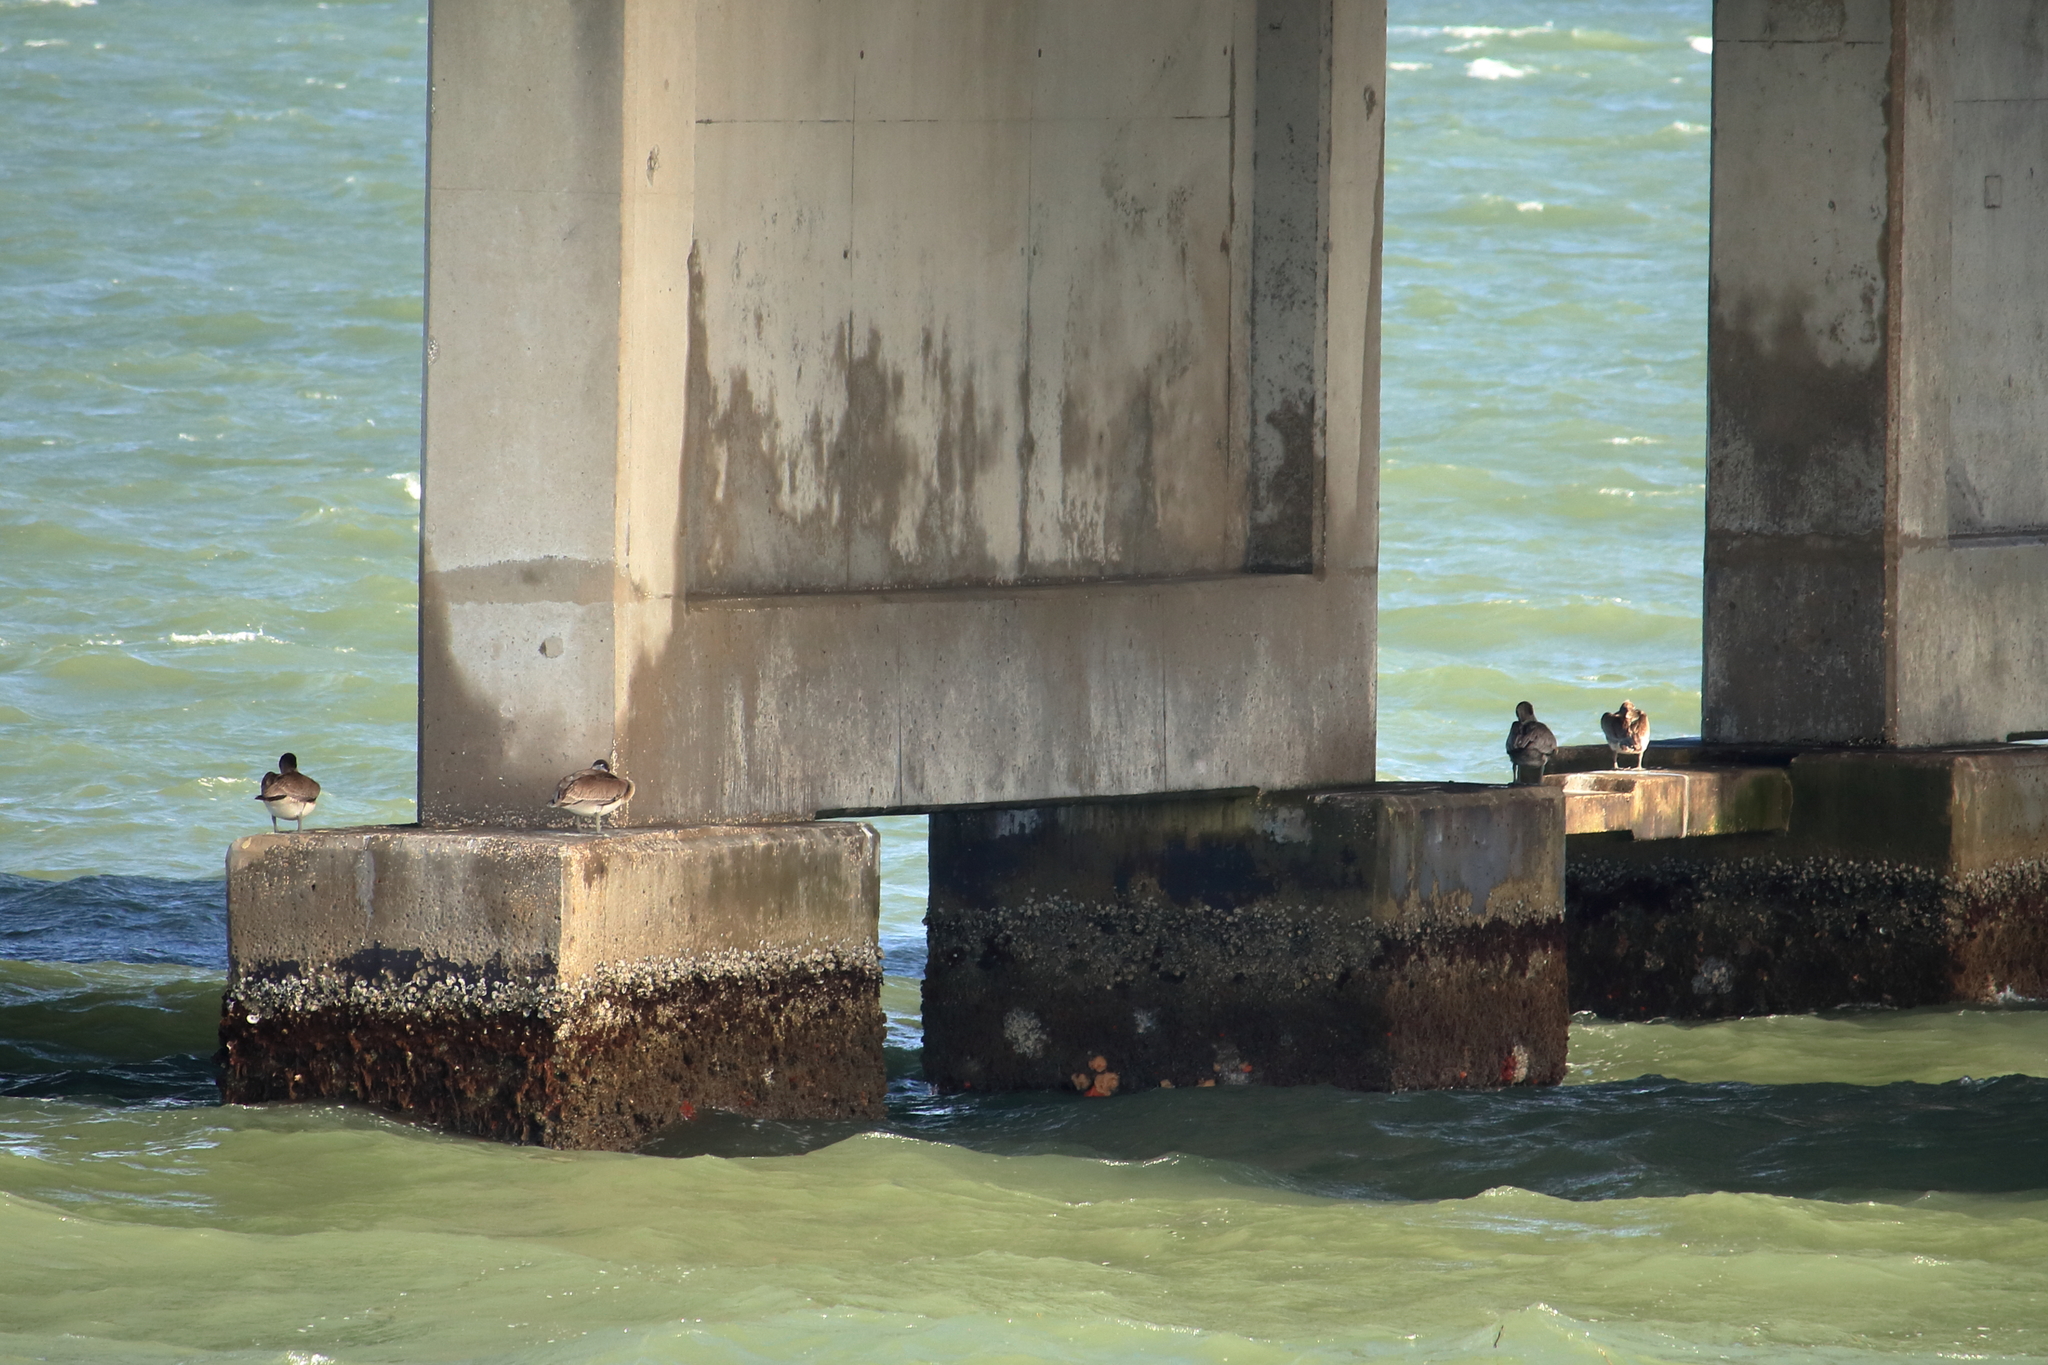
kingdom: Animalia
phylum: Chordata
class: Aves
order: Pelecaniformes
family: Pelecanidae
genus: Pelecanus
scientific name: Pelecanus occidentalis
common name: Brown pelican
